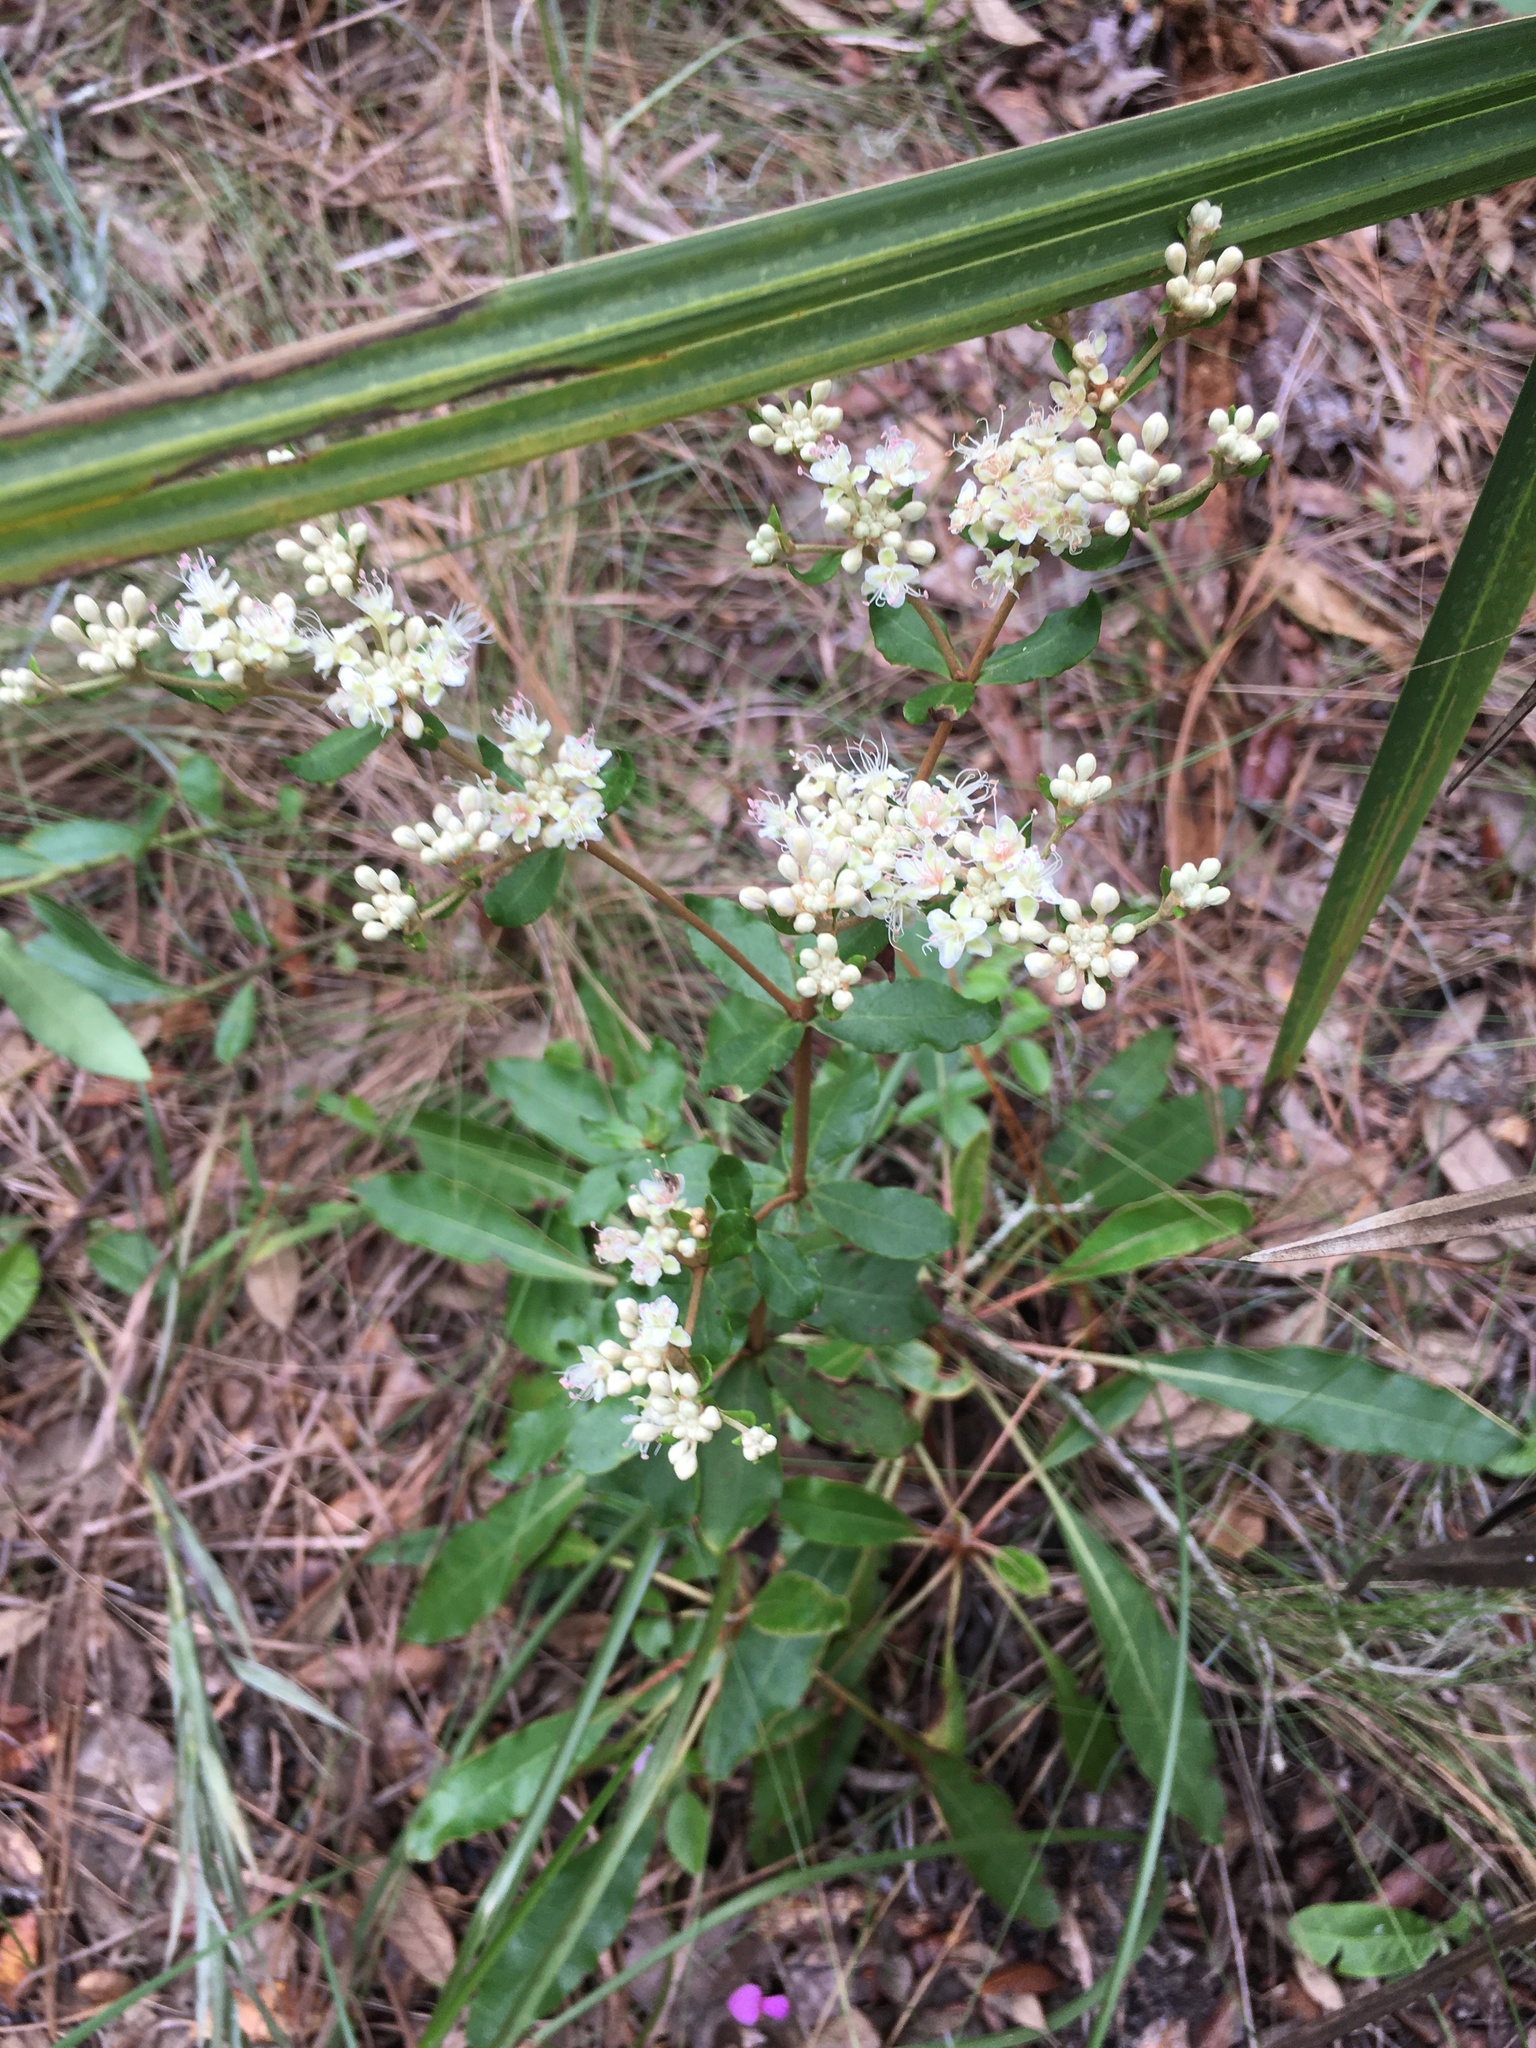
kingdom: Plantae
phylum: Tracheophyta
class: Magnoliopsida
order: Caryophyllales
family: Polygonaceae
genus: Eriogonum
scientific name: Eriogonum tomentosum
